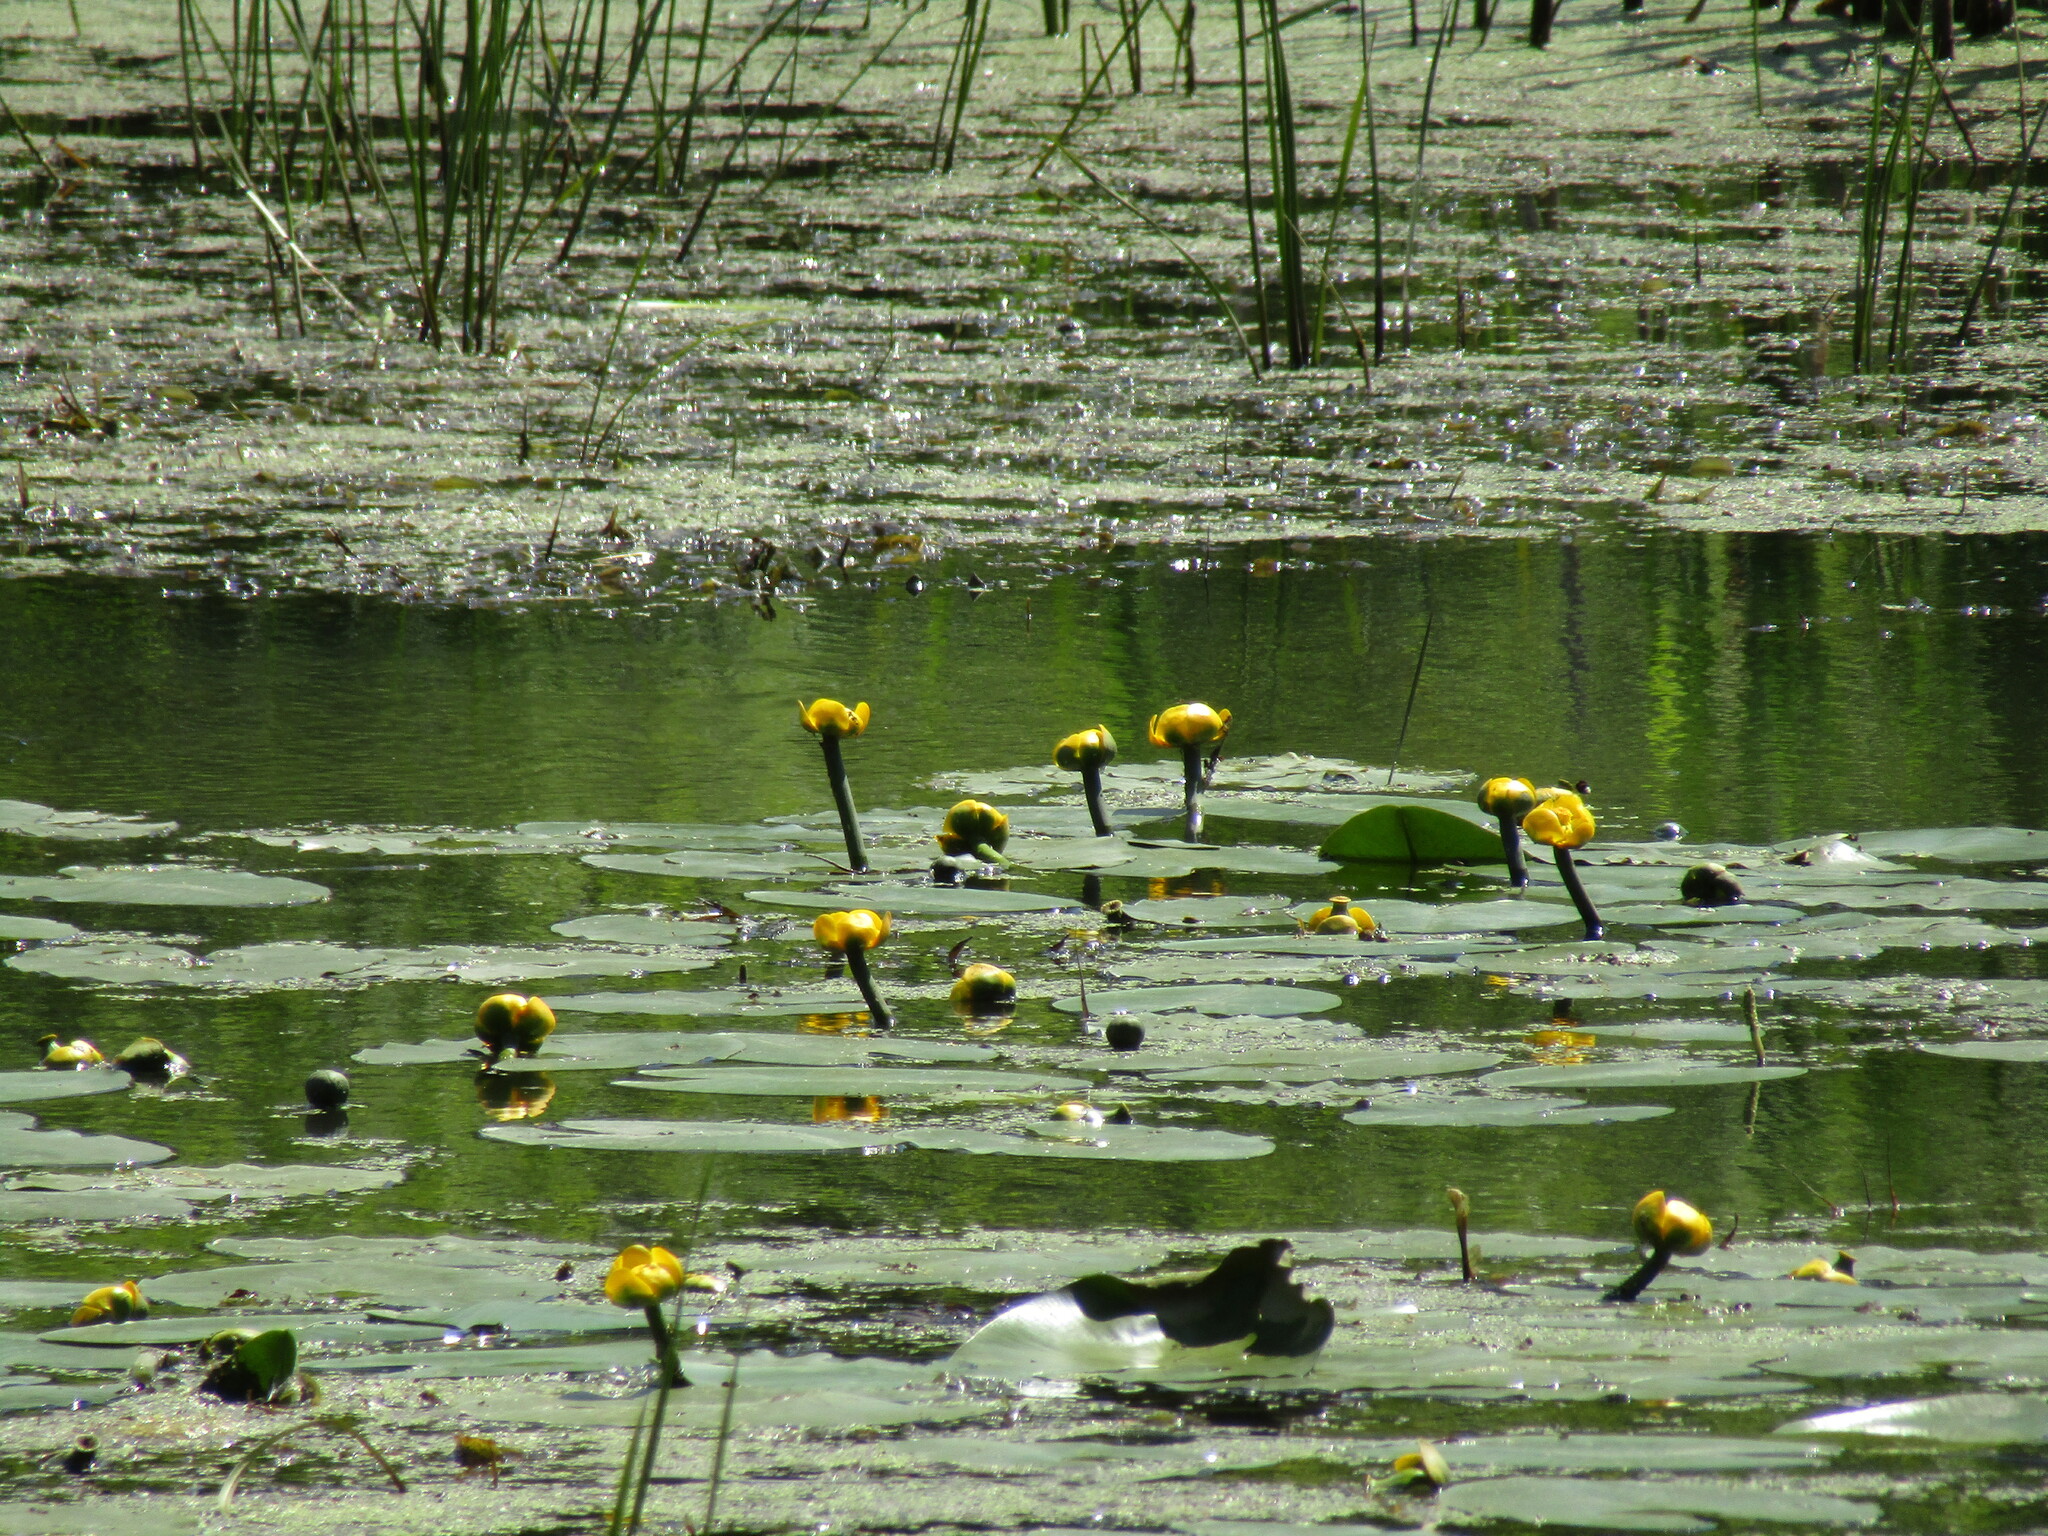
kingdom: Plantae
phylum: Tracheophyta
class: Magnoliopsida
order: Nymphaeales
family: Nymphaeaceae
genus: Nuphar
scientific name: Nuphar lutea
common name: Yellow water-lily
